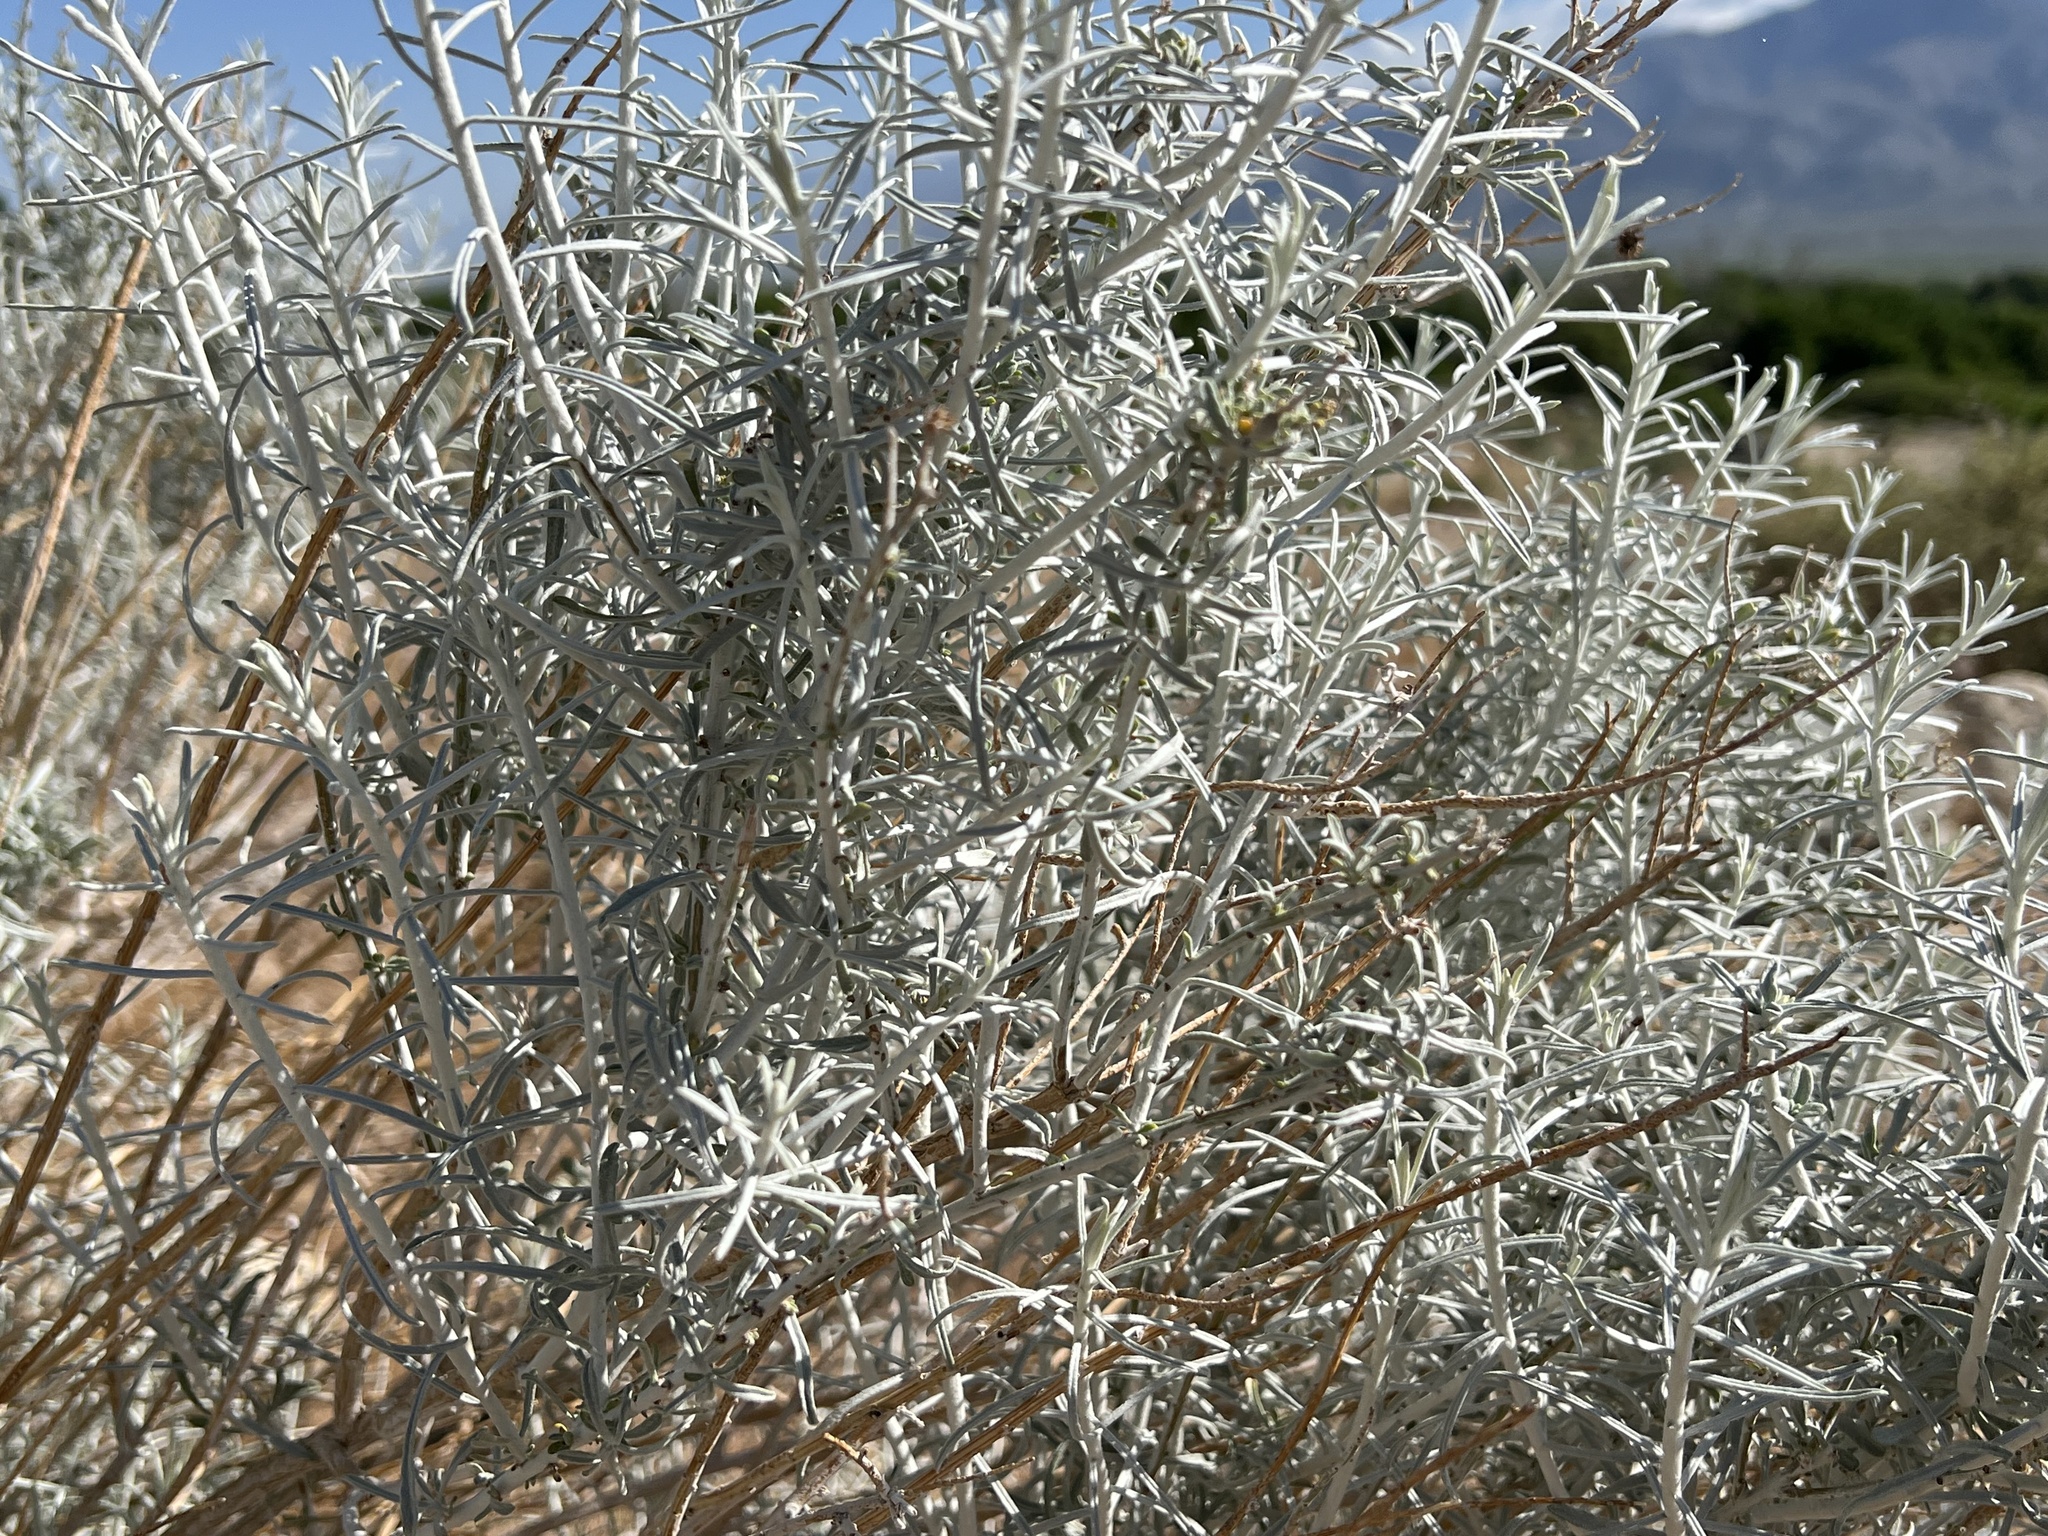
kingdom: Plantae
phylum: Tracheophyta
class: Magnoliopsida
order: Asterales
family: Asteraceae
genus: Ericameria
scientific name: Ericameria nauseosa
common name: Rubber rabbitbrush
